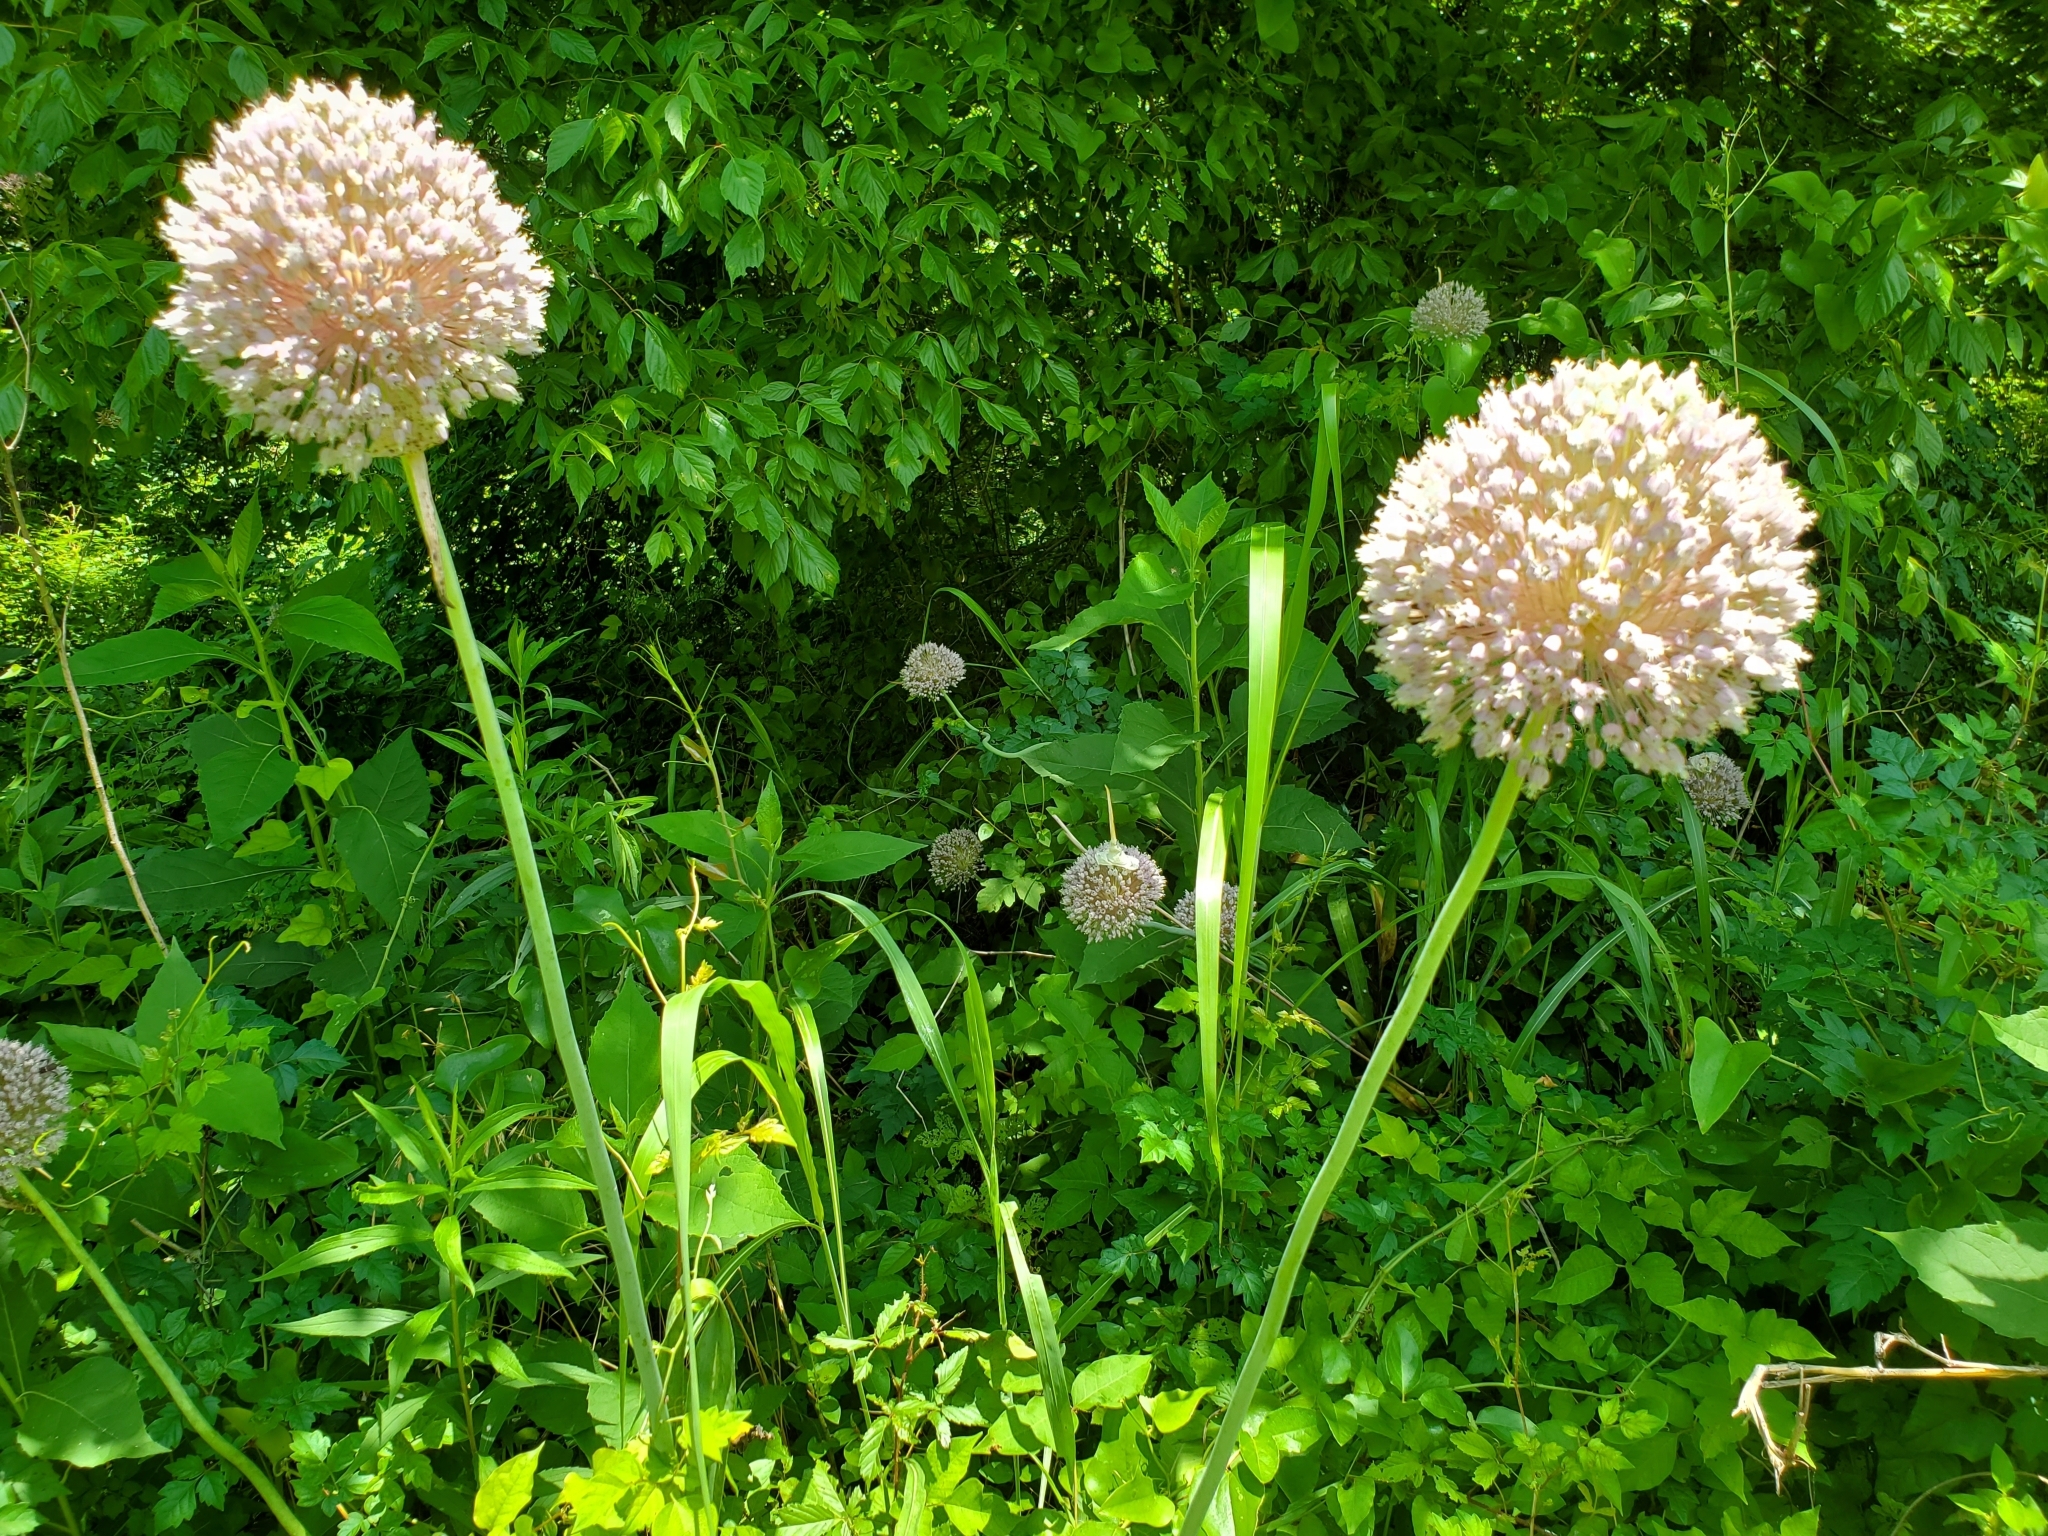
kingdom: Plantae
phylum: Tracheophyta
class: Liliopsida
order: Asparagales
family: Amaryllidaceae
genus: Allium
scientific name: Allium ampeloprasum
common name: Wild leek
